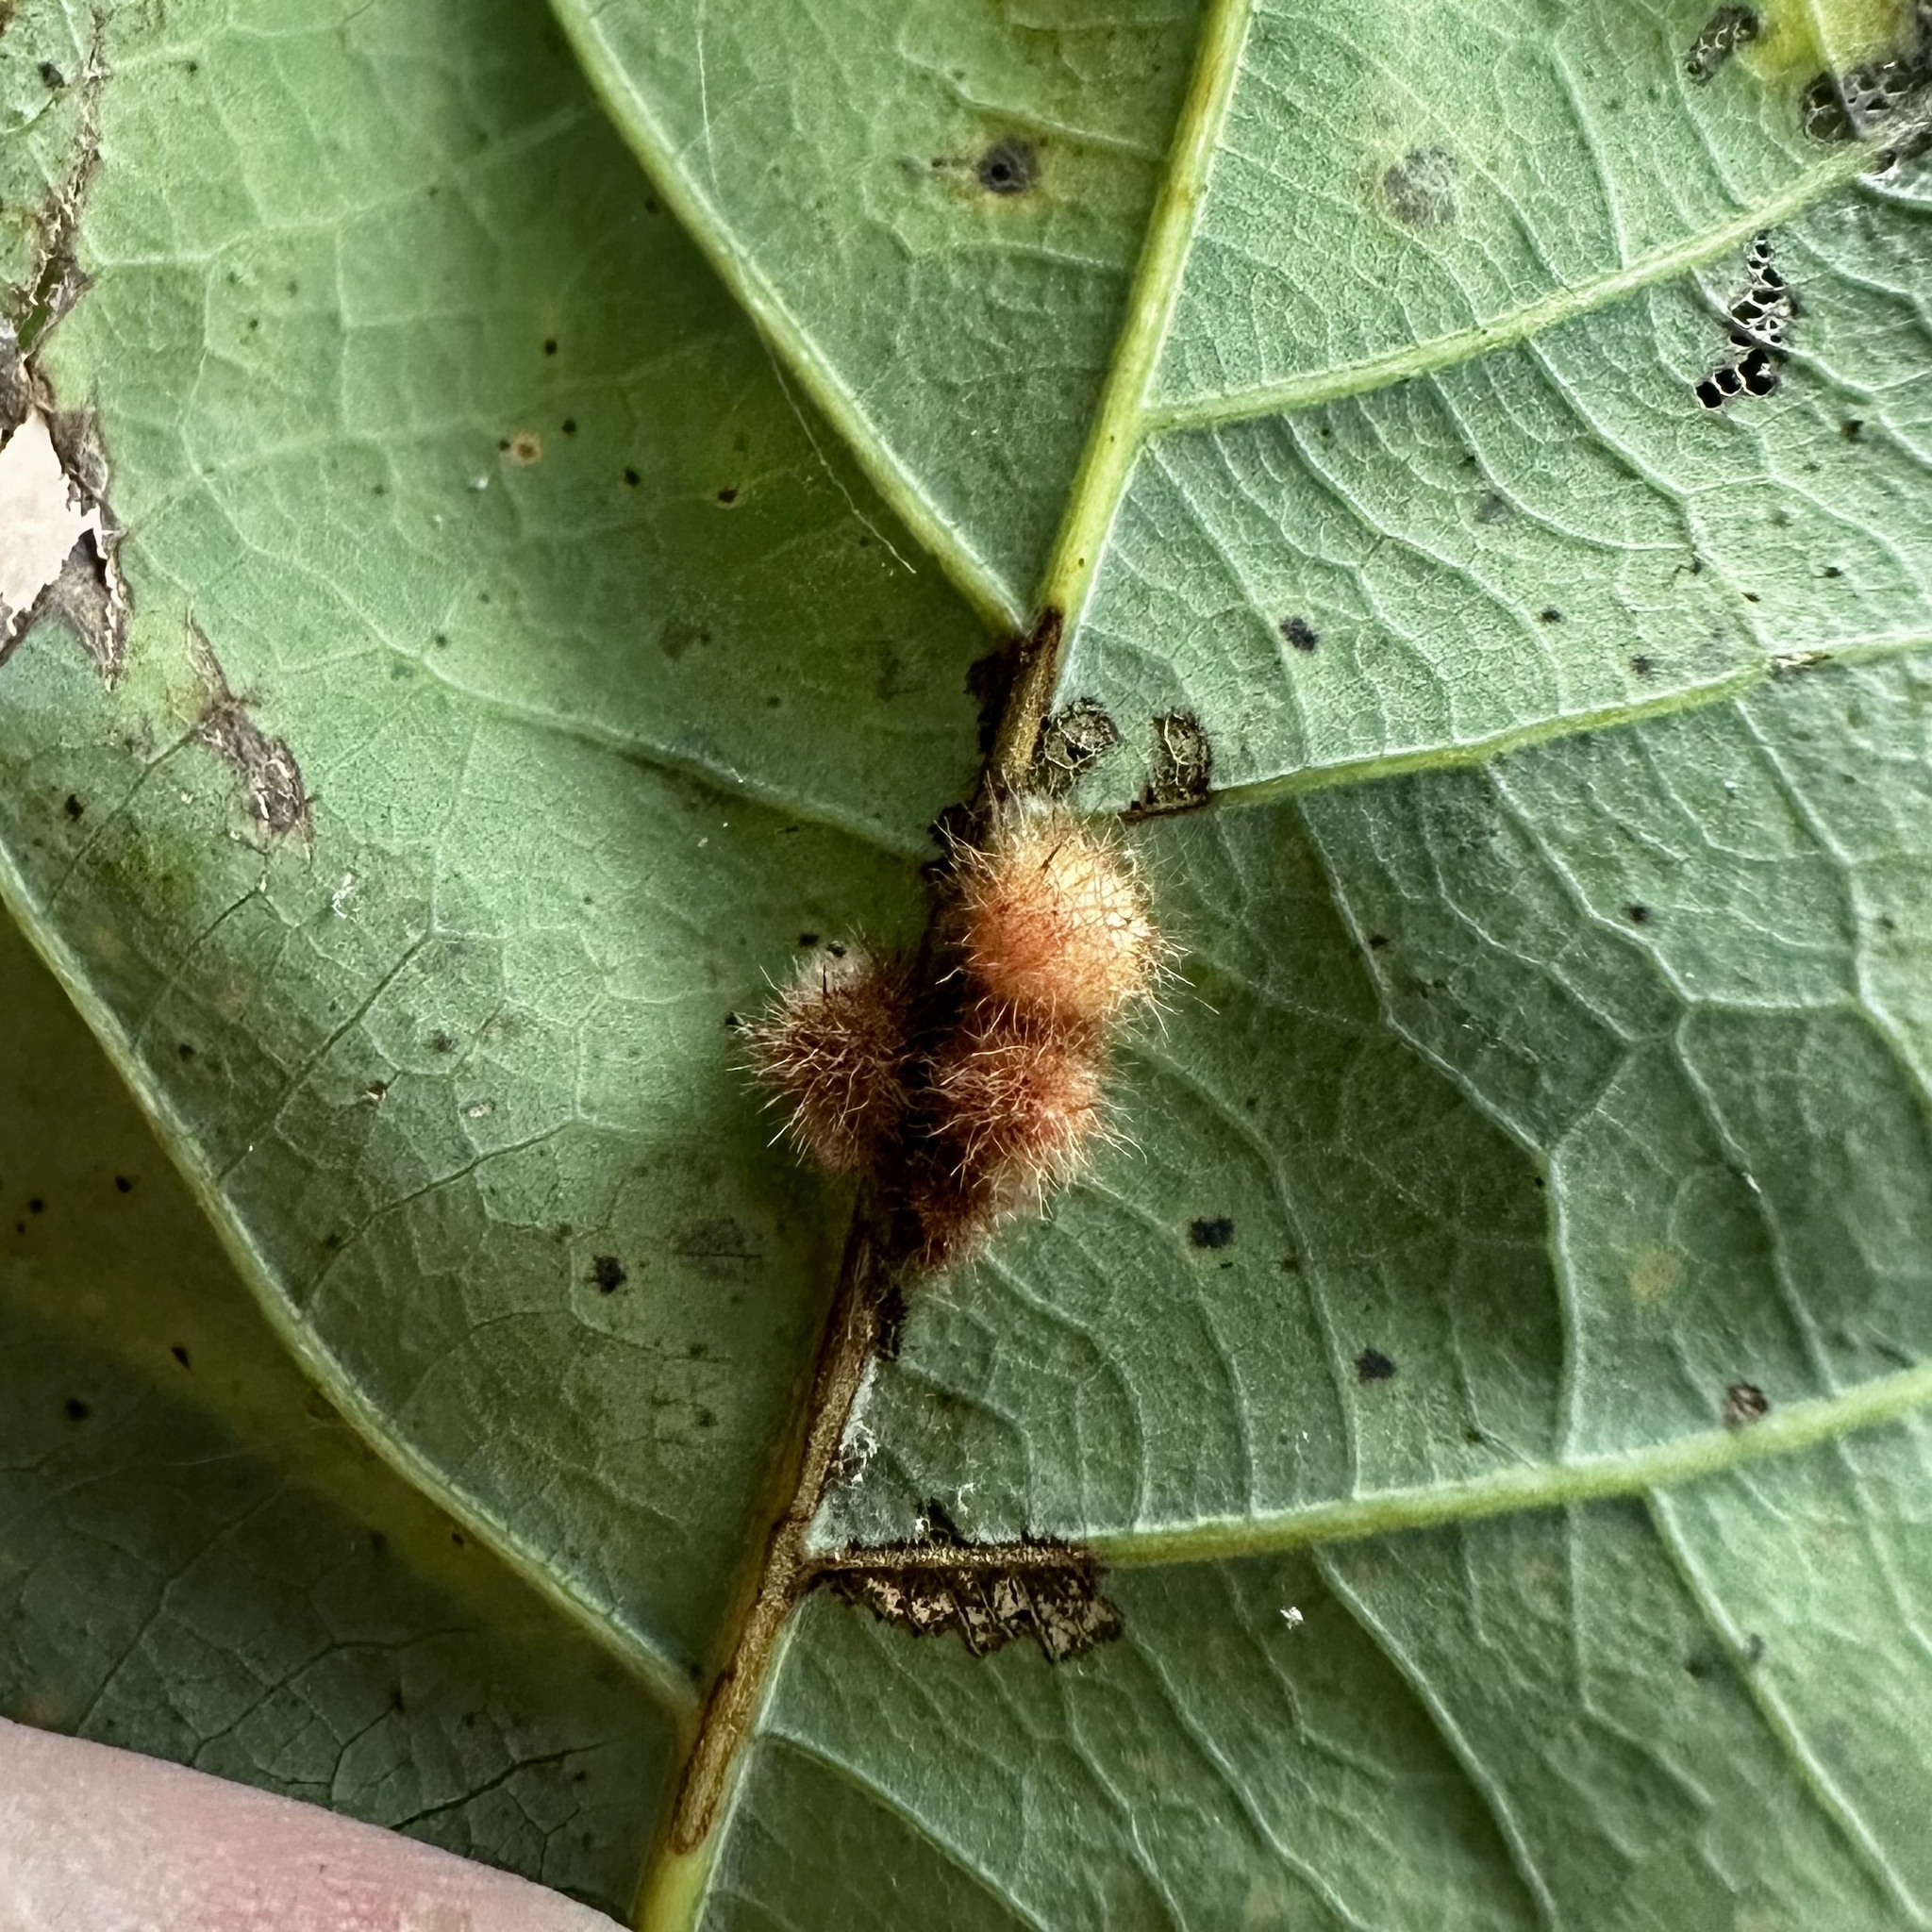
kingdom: Animalia
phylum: Arthropoda
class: Insecta
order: Hymenoptera
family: Cynipidae
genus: Andricus
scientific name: Andricus
